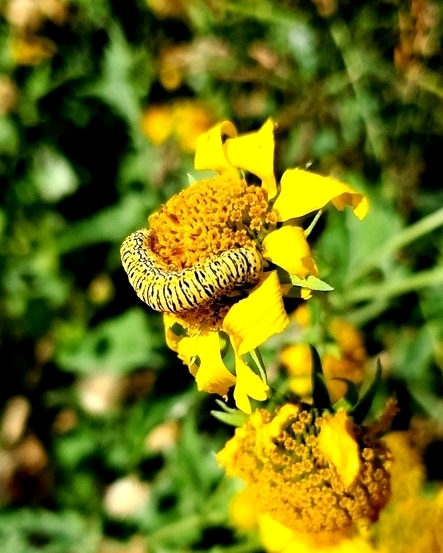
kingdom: Animalia
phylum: Arthropoda
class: Insecta
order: Lepidoptera
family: Noctuidae
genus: Basilodes
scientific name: Basilodes chrysopis
